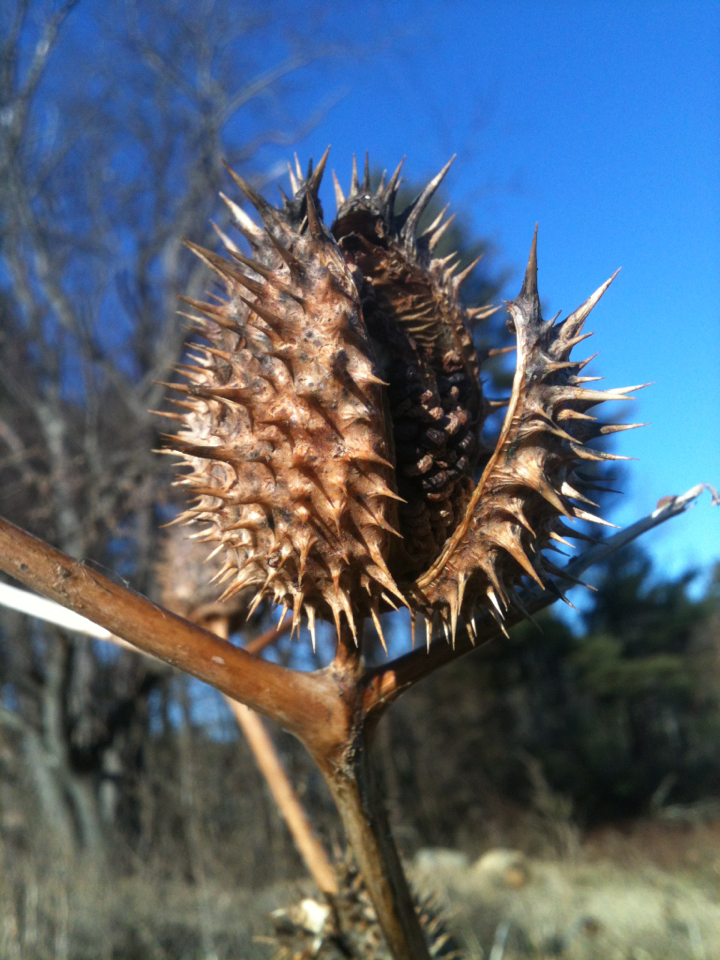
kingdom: Plantae
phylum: Tracheophyta
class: Magnoliopsida
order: Solanales
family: Solanaceae
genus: Datura
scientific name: Datura stramonium
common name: Thorn-apple
